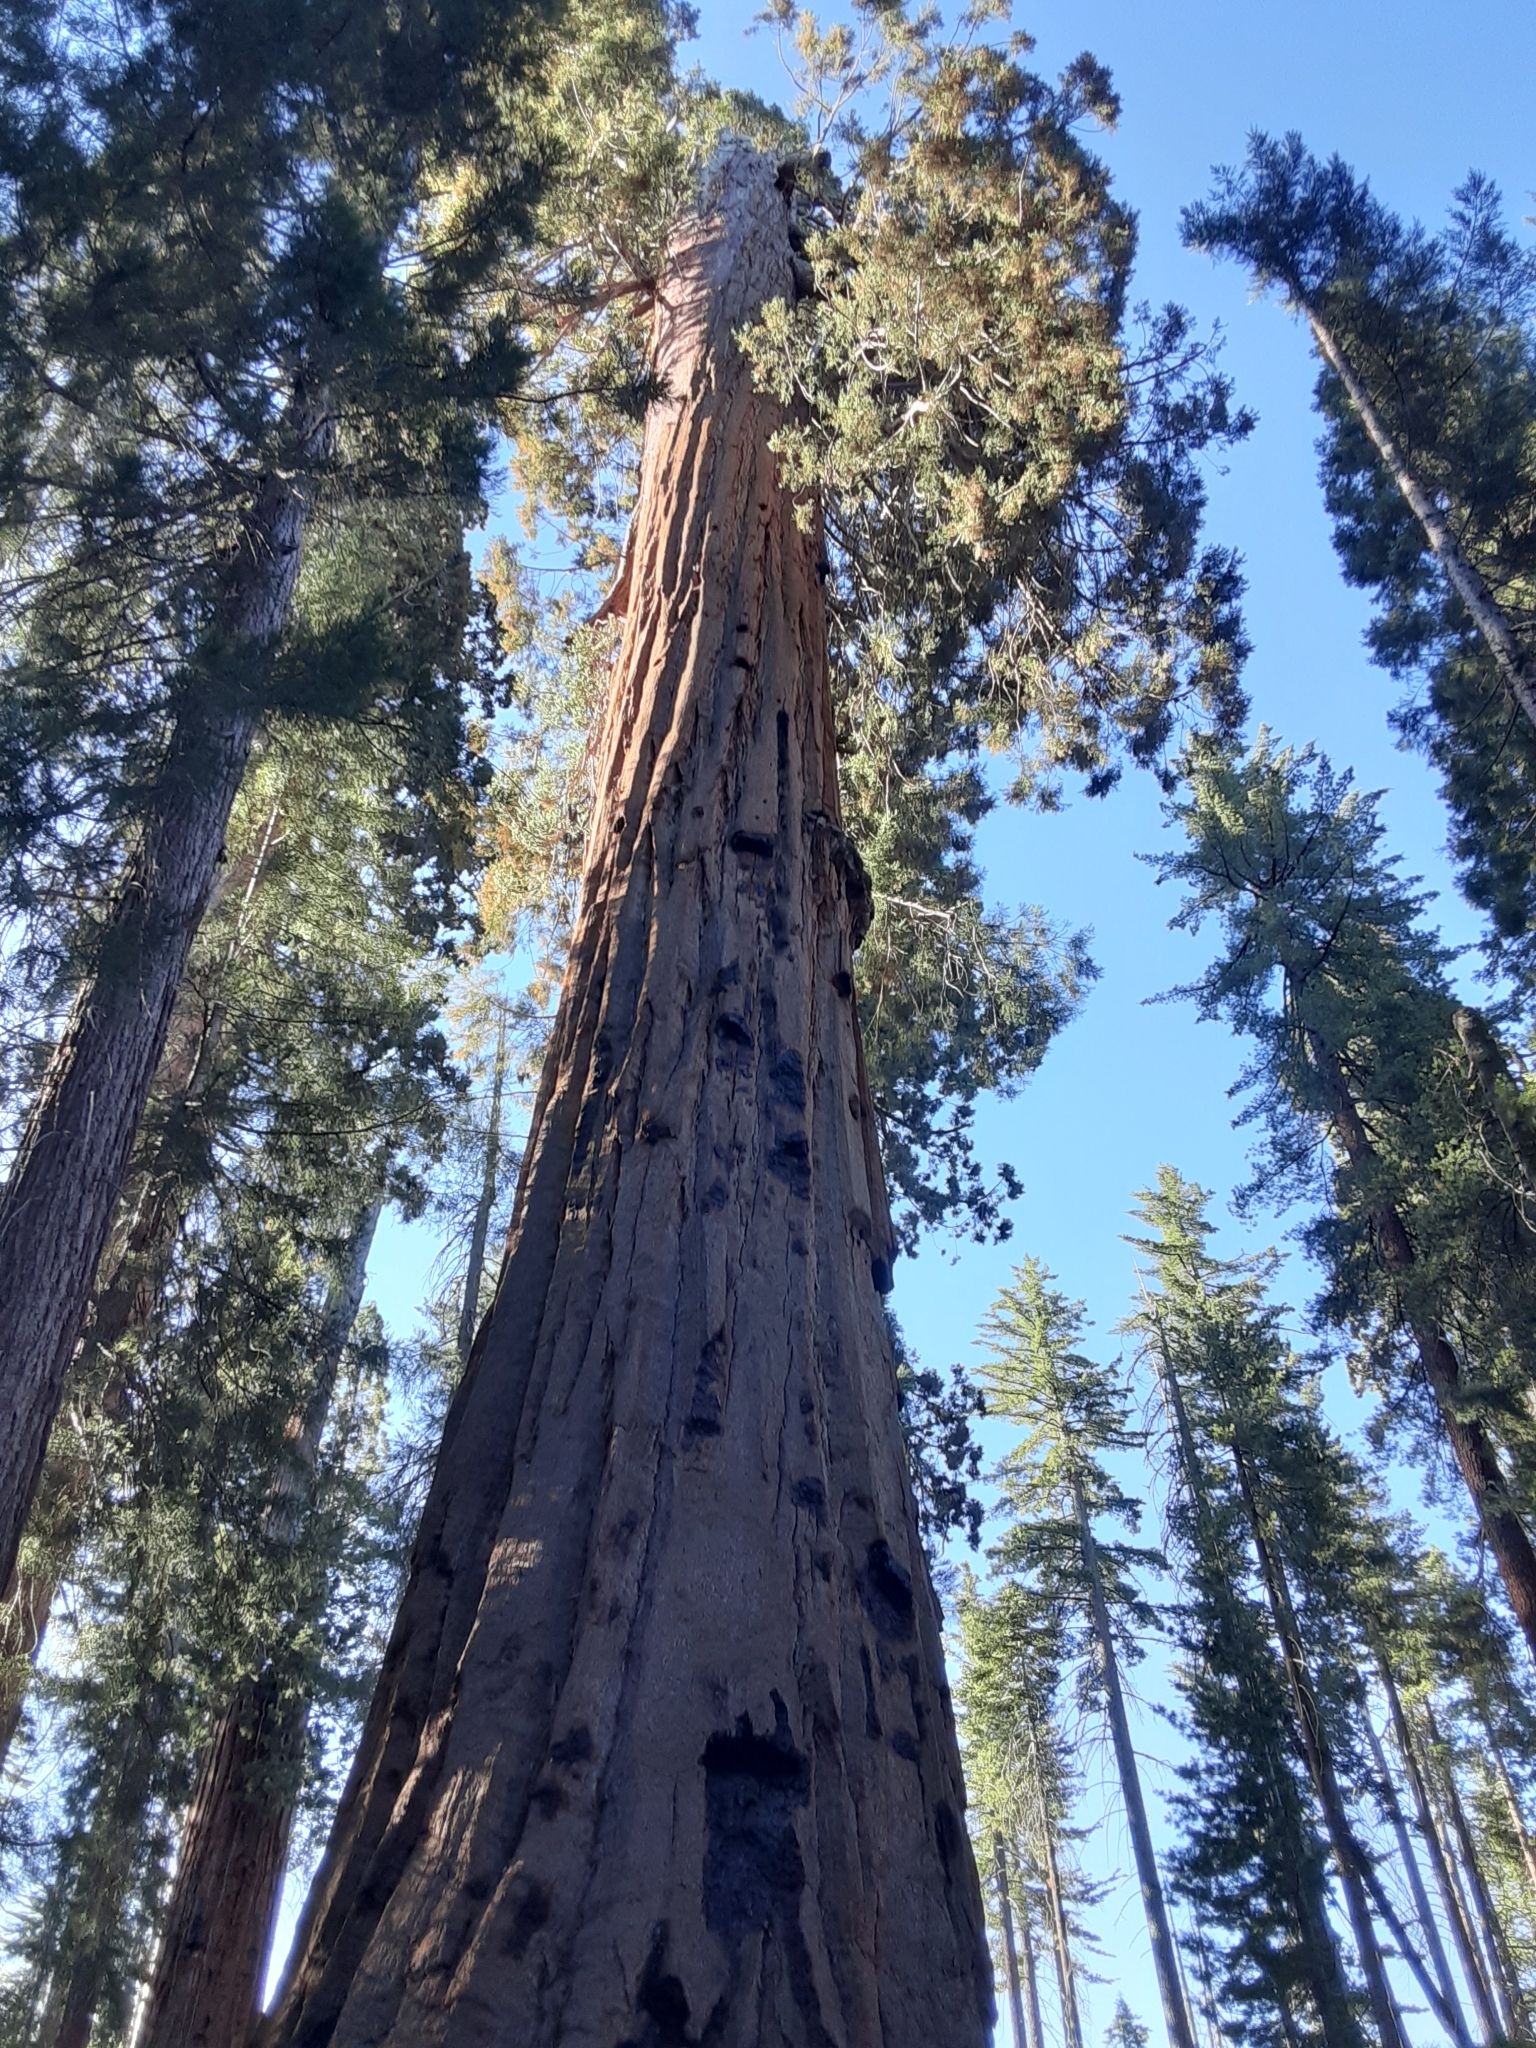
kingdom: Plantae
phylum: Tracheophyta
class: Pinopsida
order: Pinales
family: Cupressaceae
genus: Sequoiadendron
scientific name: Sequoiadendron giganteum
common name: Wellingtonia
